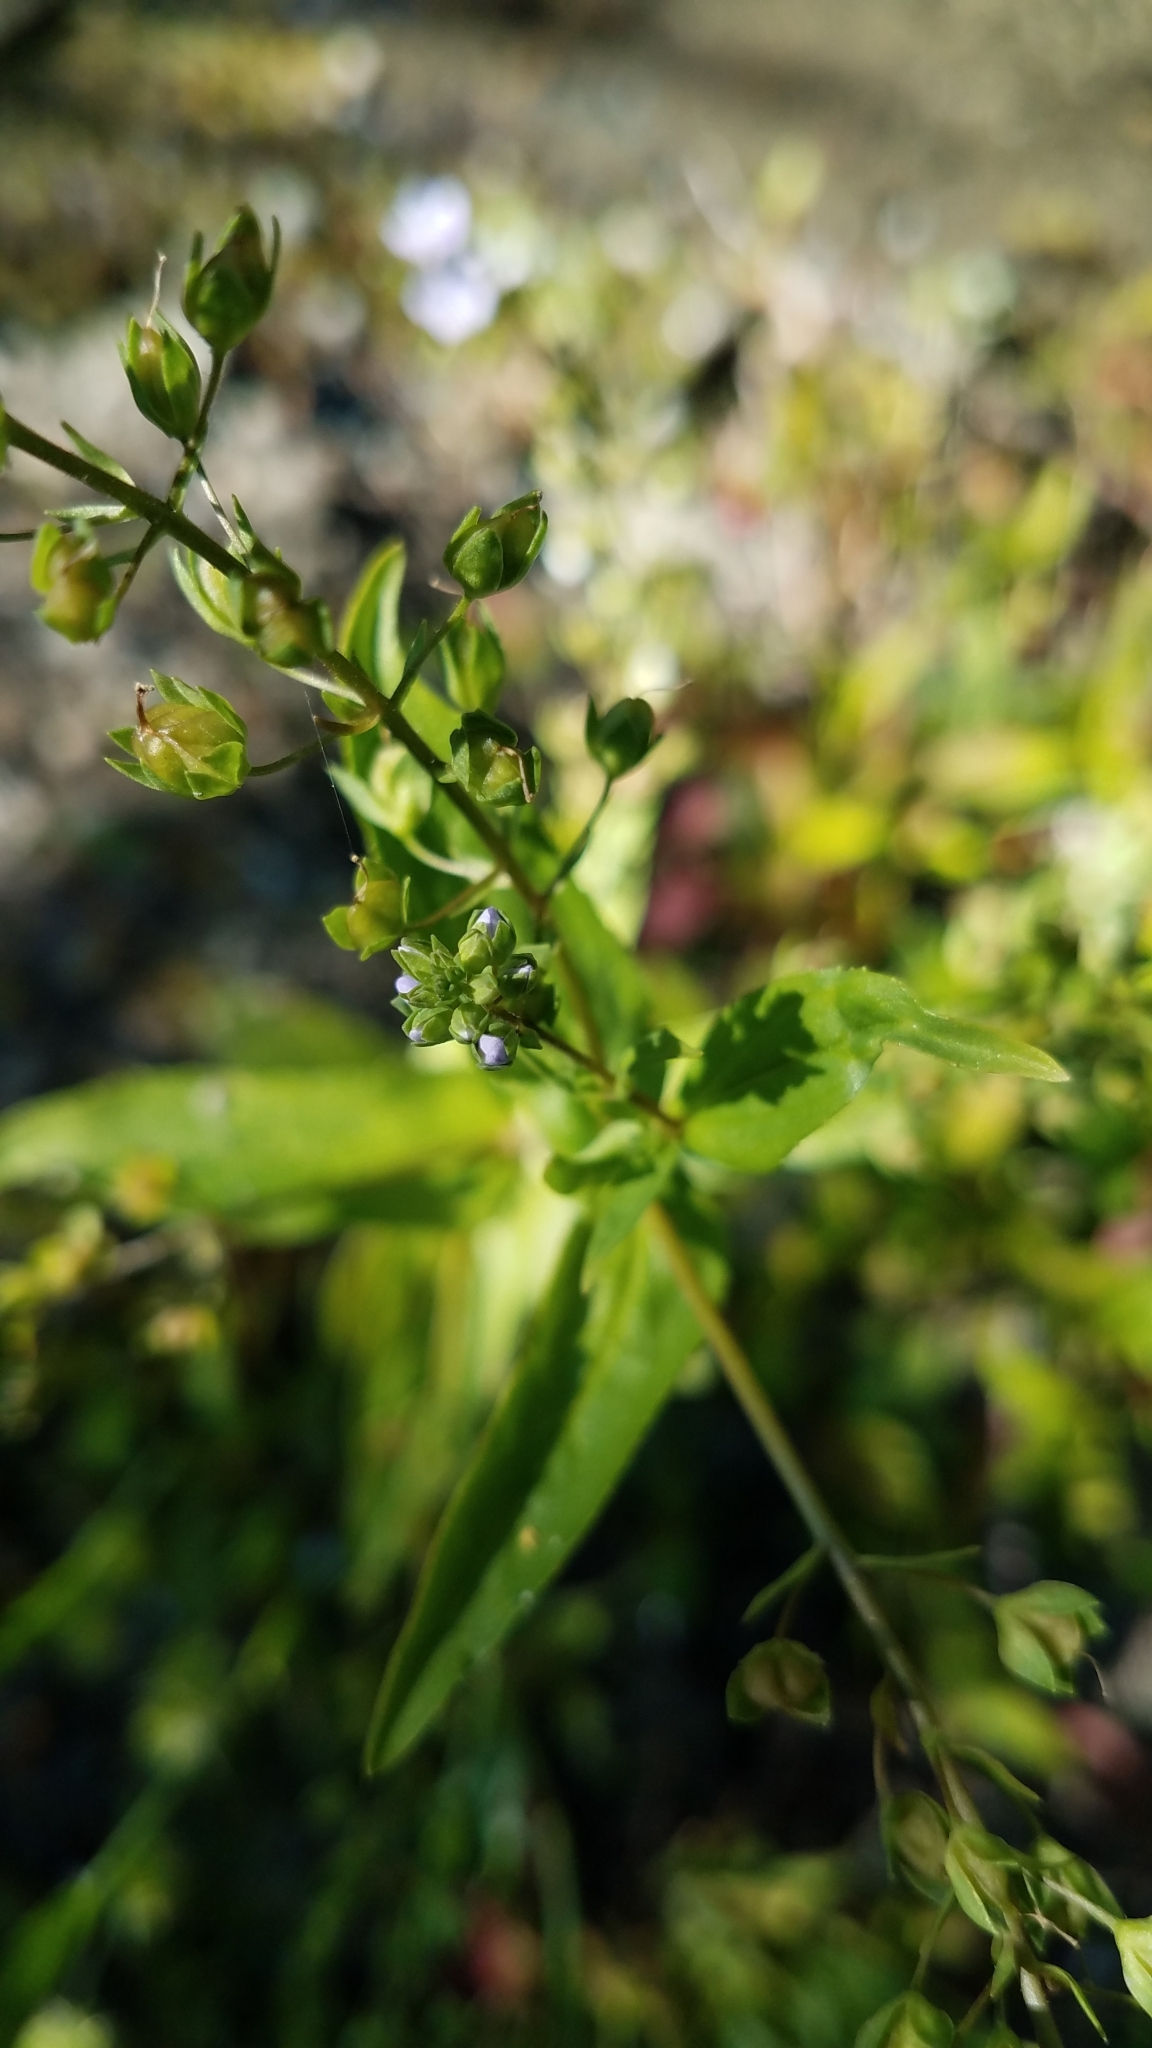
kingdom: Plantae
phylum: Tracheophyta
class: Magnoliopsida
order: Lamiales
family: Plantaginaceae
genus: Veronica
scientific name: Veronica anagallis-aquatica
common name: Water speedwell
